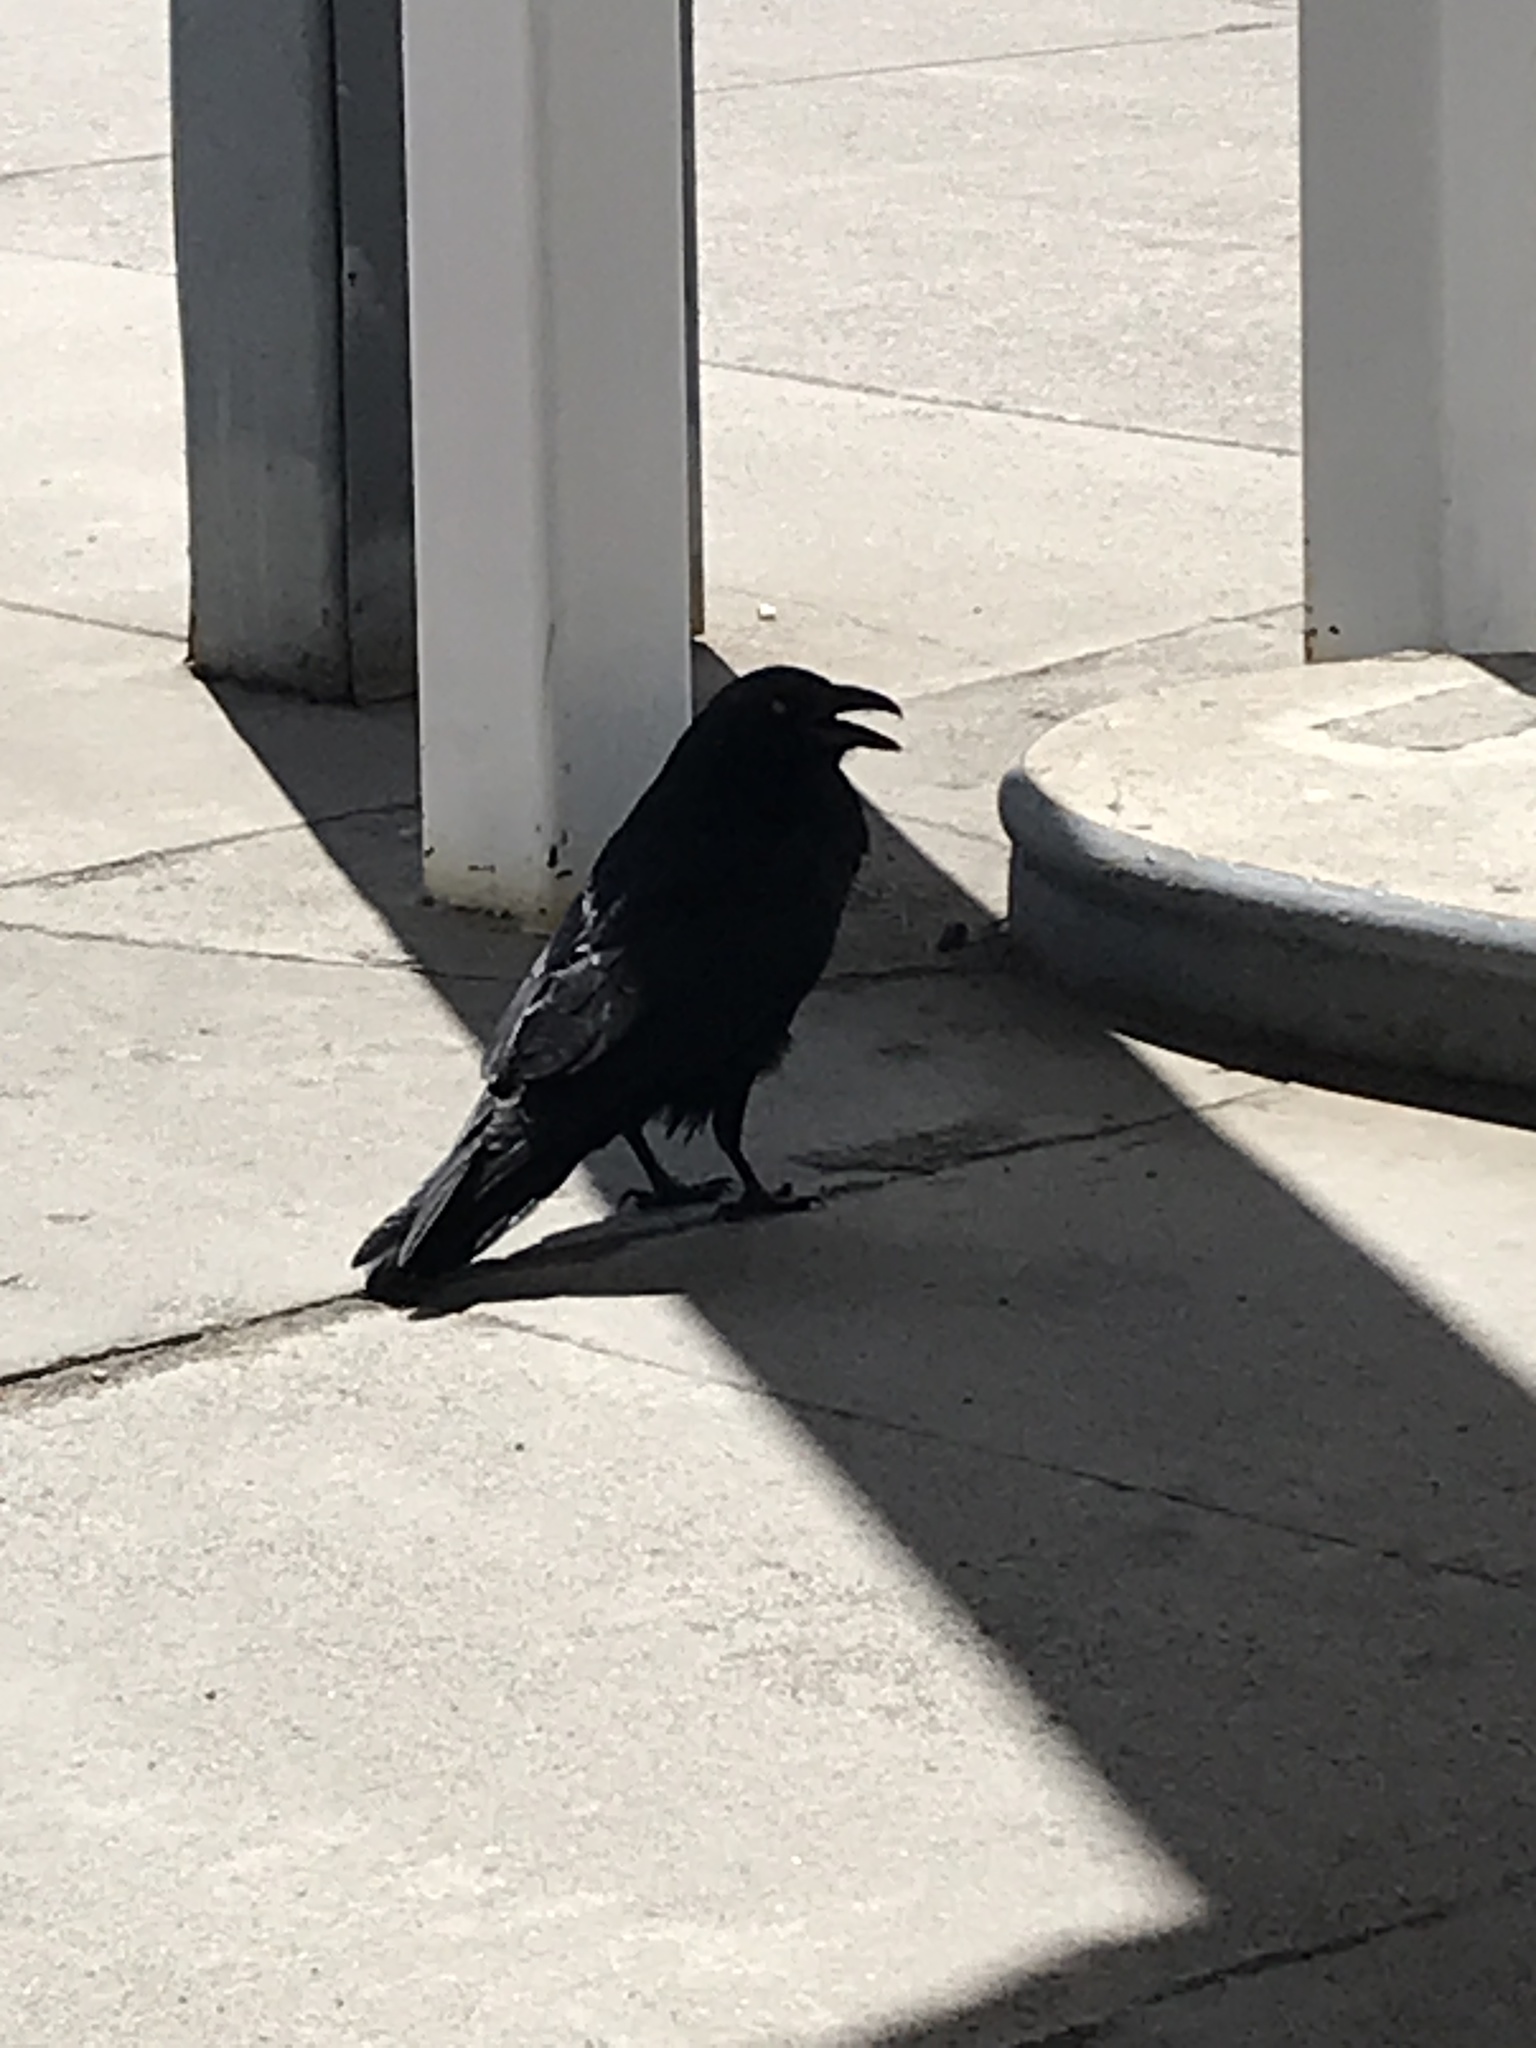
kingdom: Animalia
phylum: Chordata
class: Aves
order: Passeriformes
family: Corvidae
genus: Corvus
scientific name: Corvus corax
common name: Common raven
